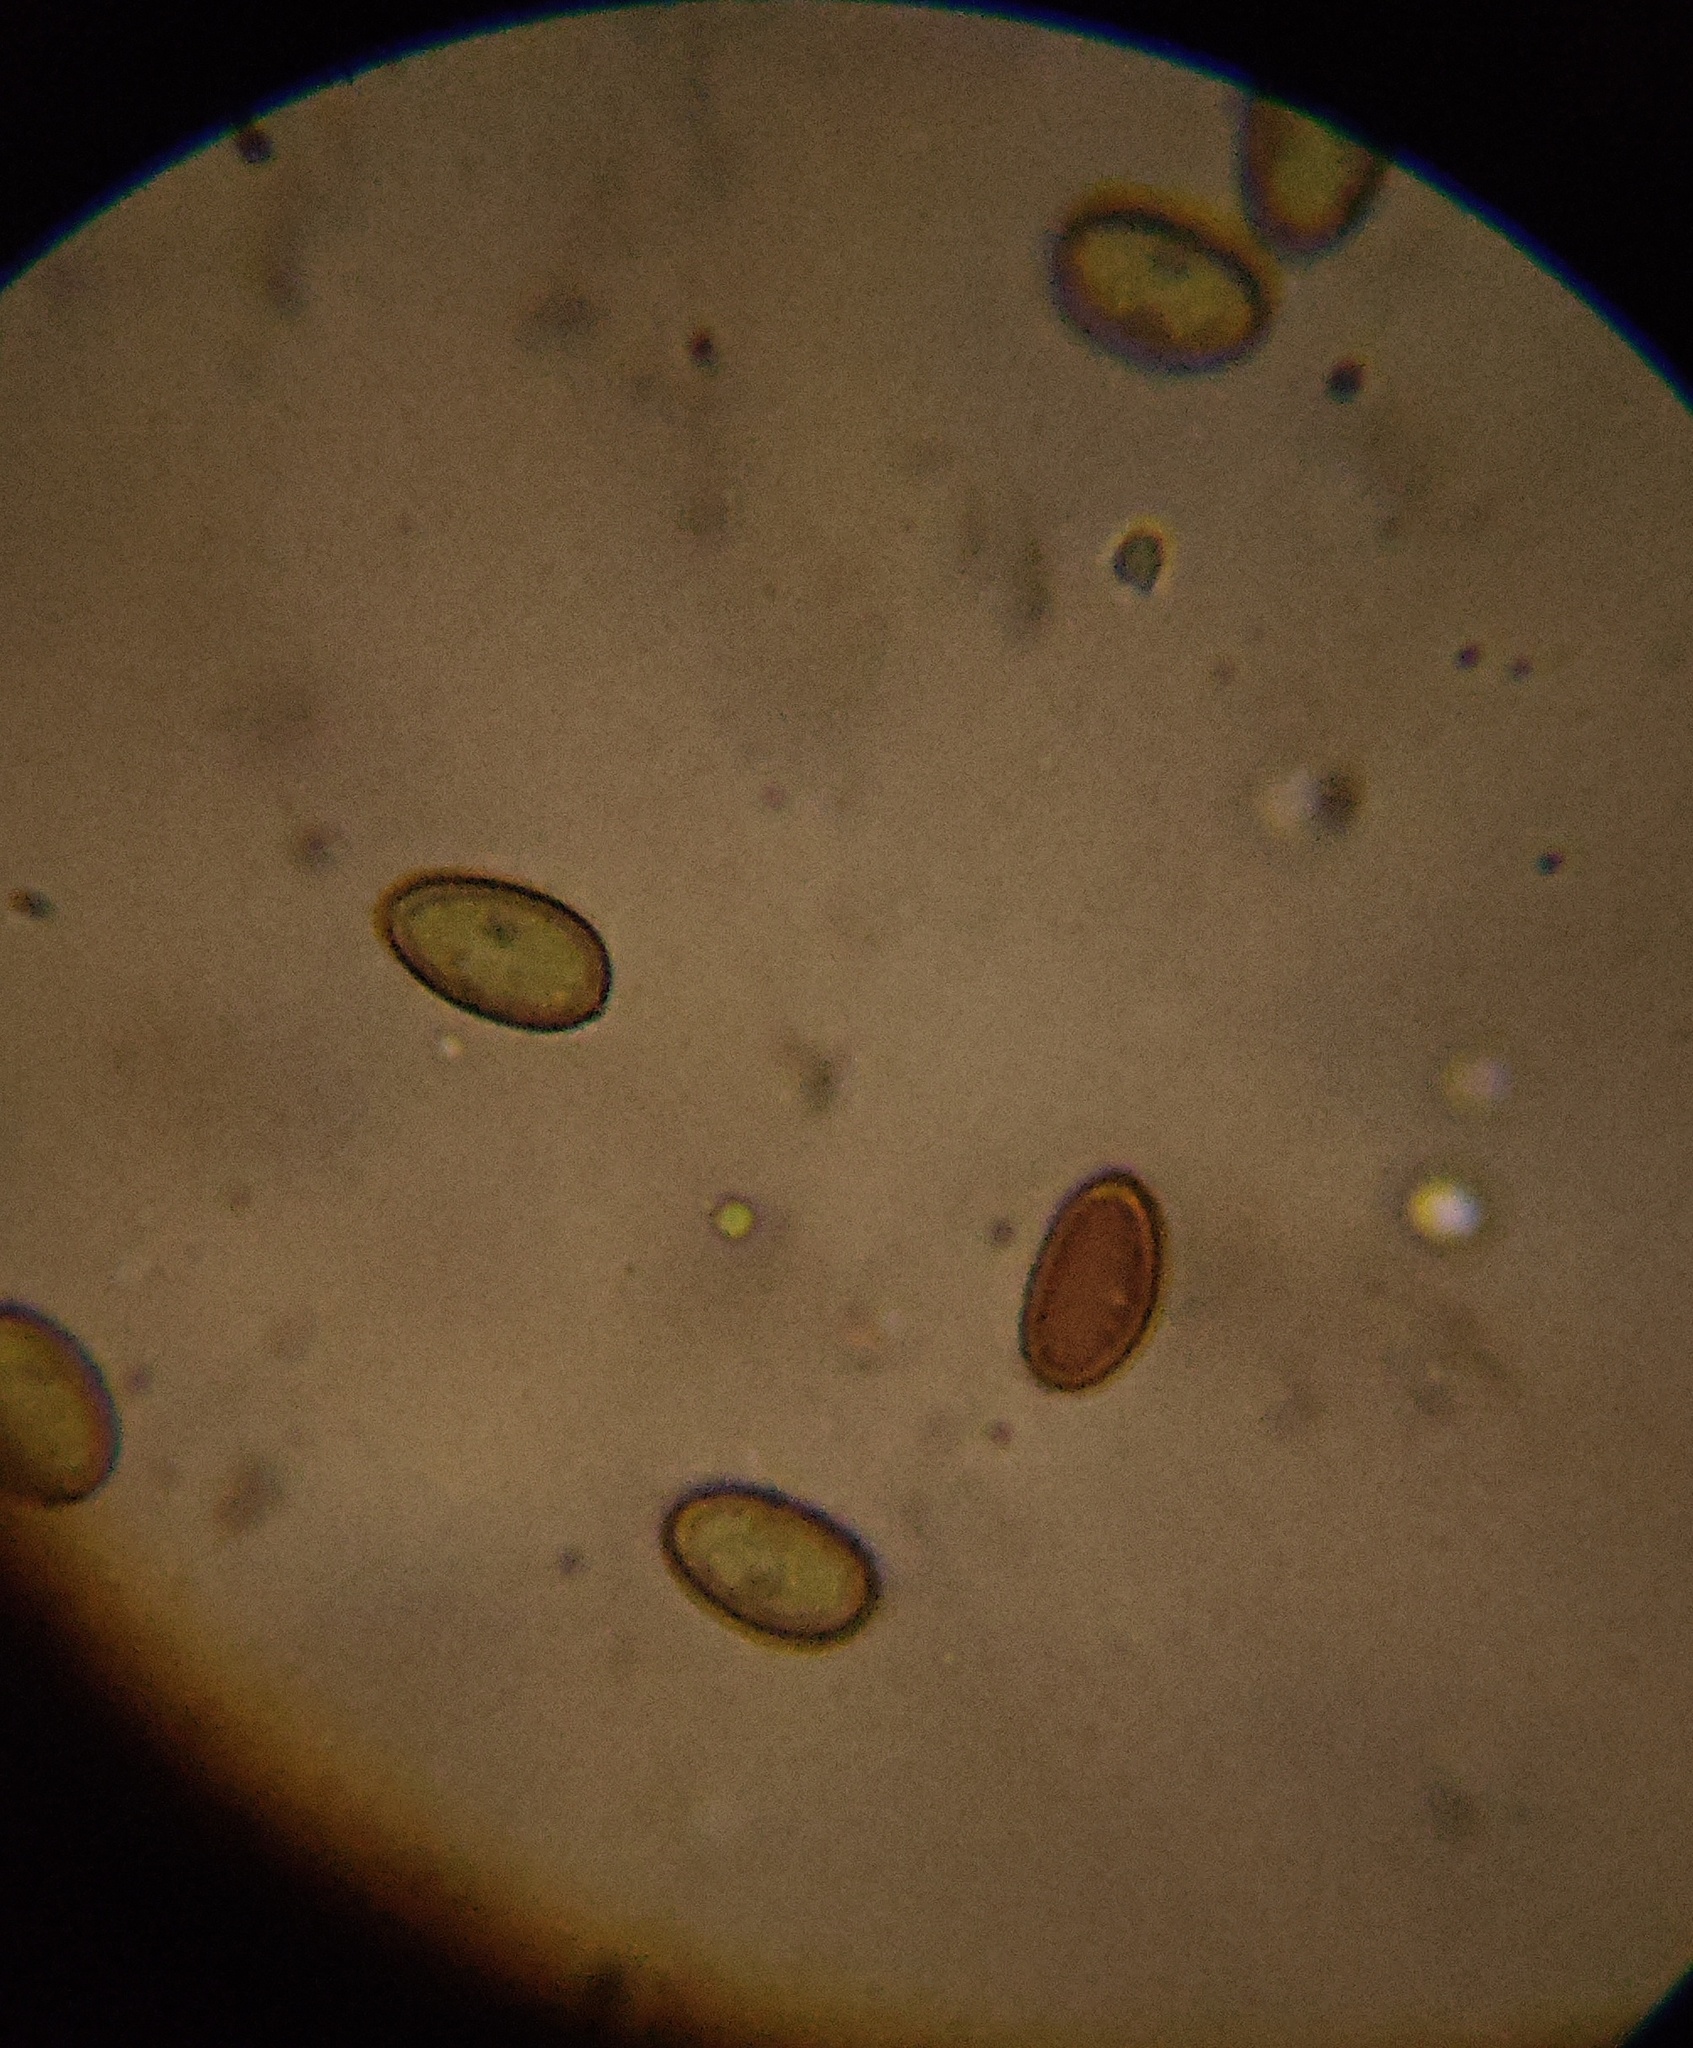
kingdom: Fungi
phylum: Basidiomycota
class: Agaricomycetes
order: Agaricales
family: Strophariaceae
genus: Pholiota
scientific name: Pholiota spumosa
